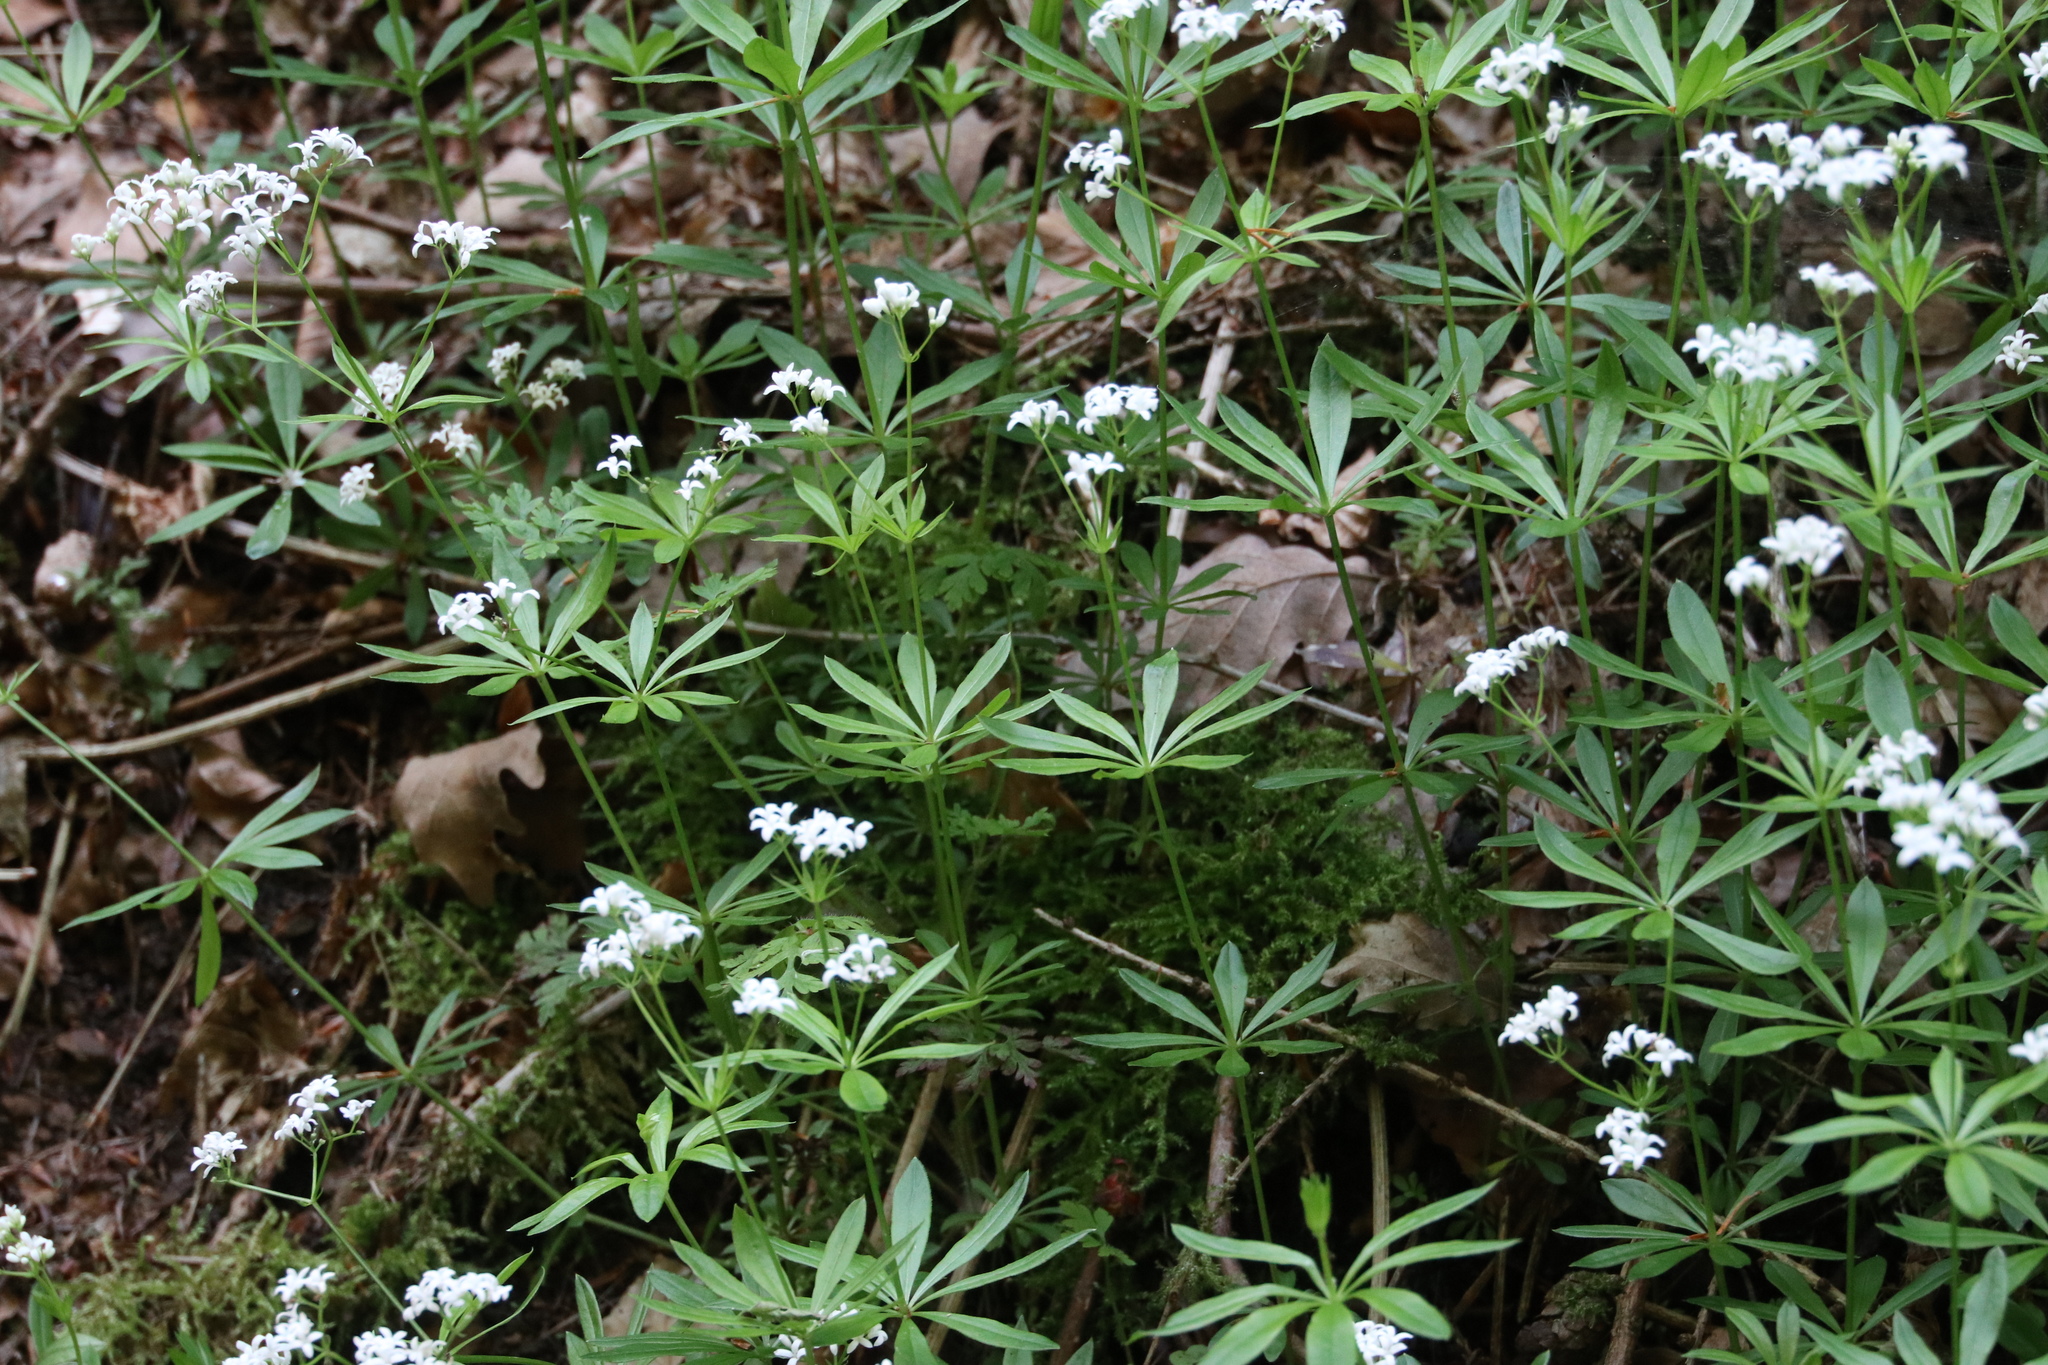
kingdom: Plantae
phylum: Tracheophyta
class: Magnoliopsida
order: Gentianales
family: Rubiaceae
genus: Galium
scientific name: Galium odoratum
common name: Sweet woodruff
